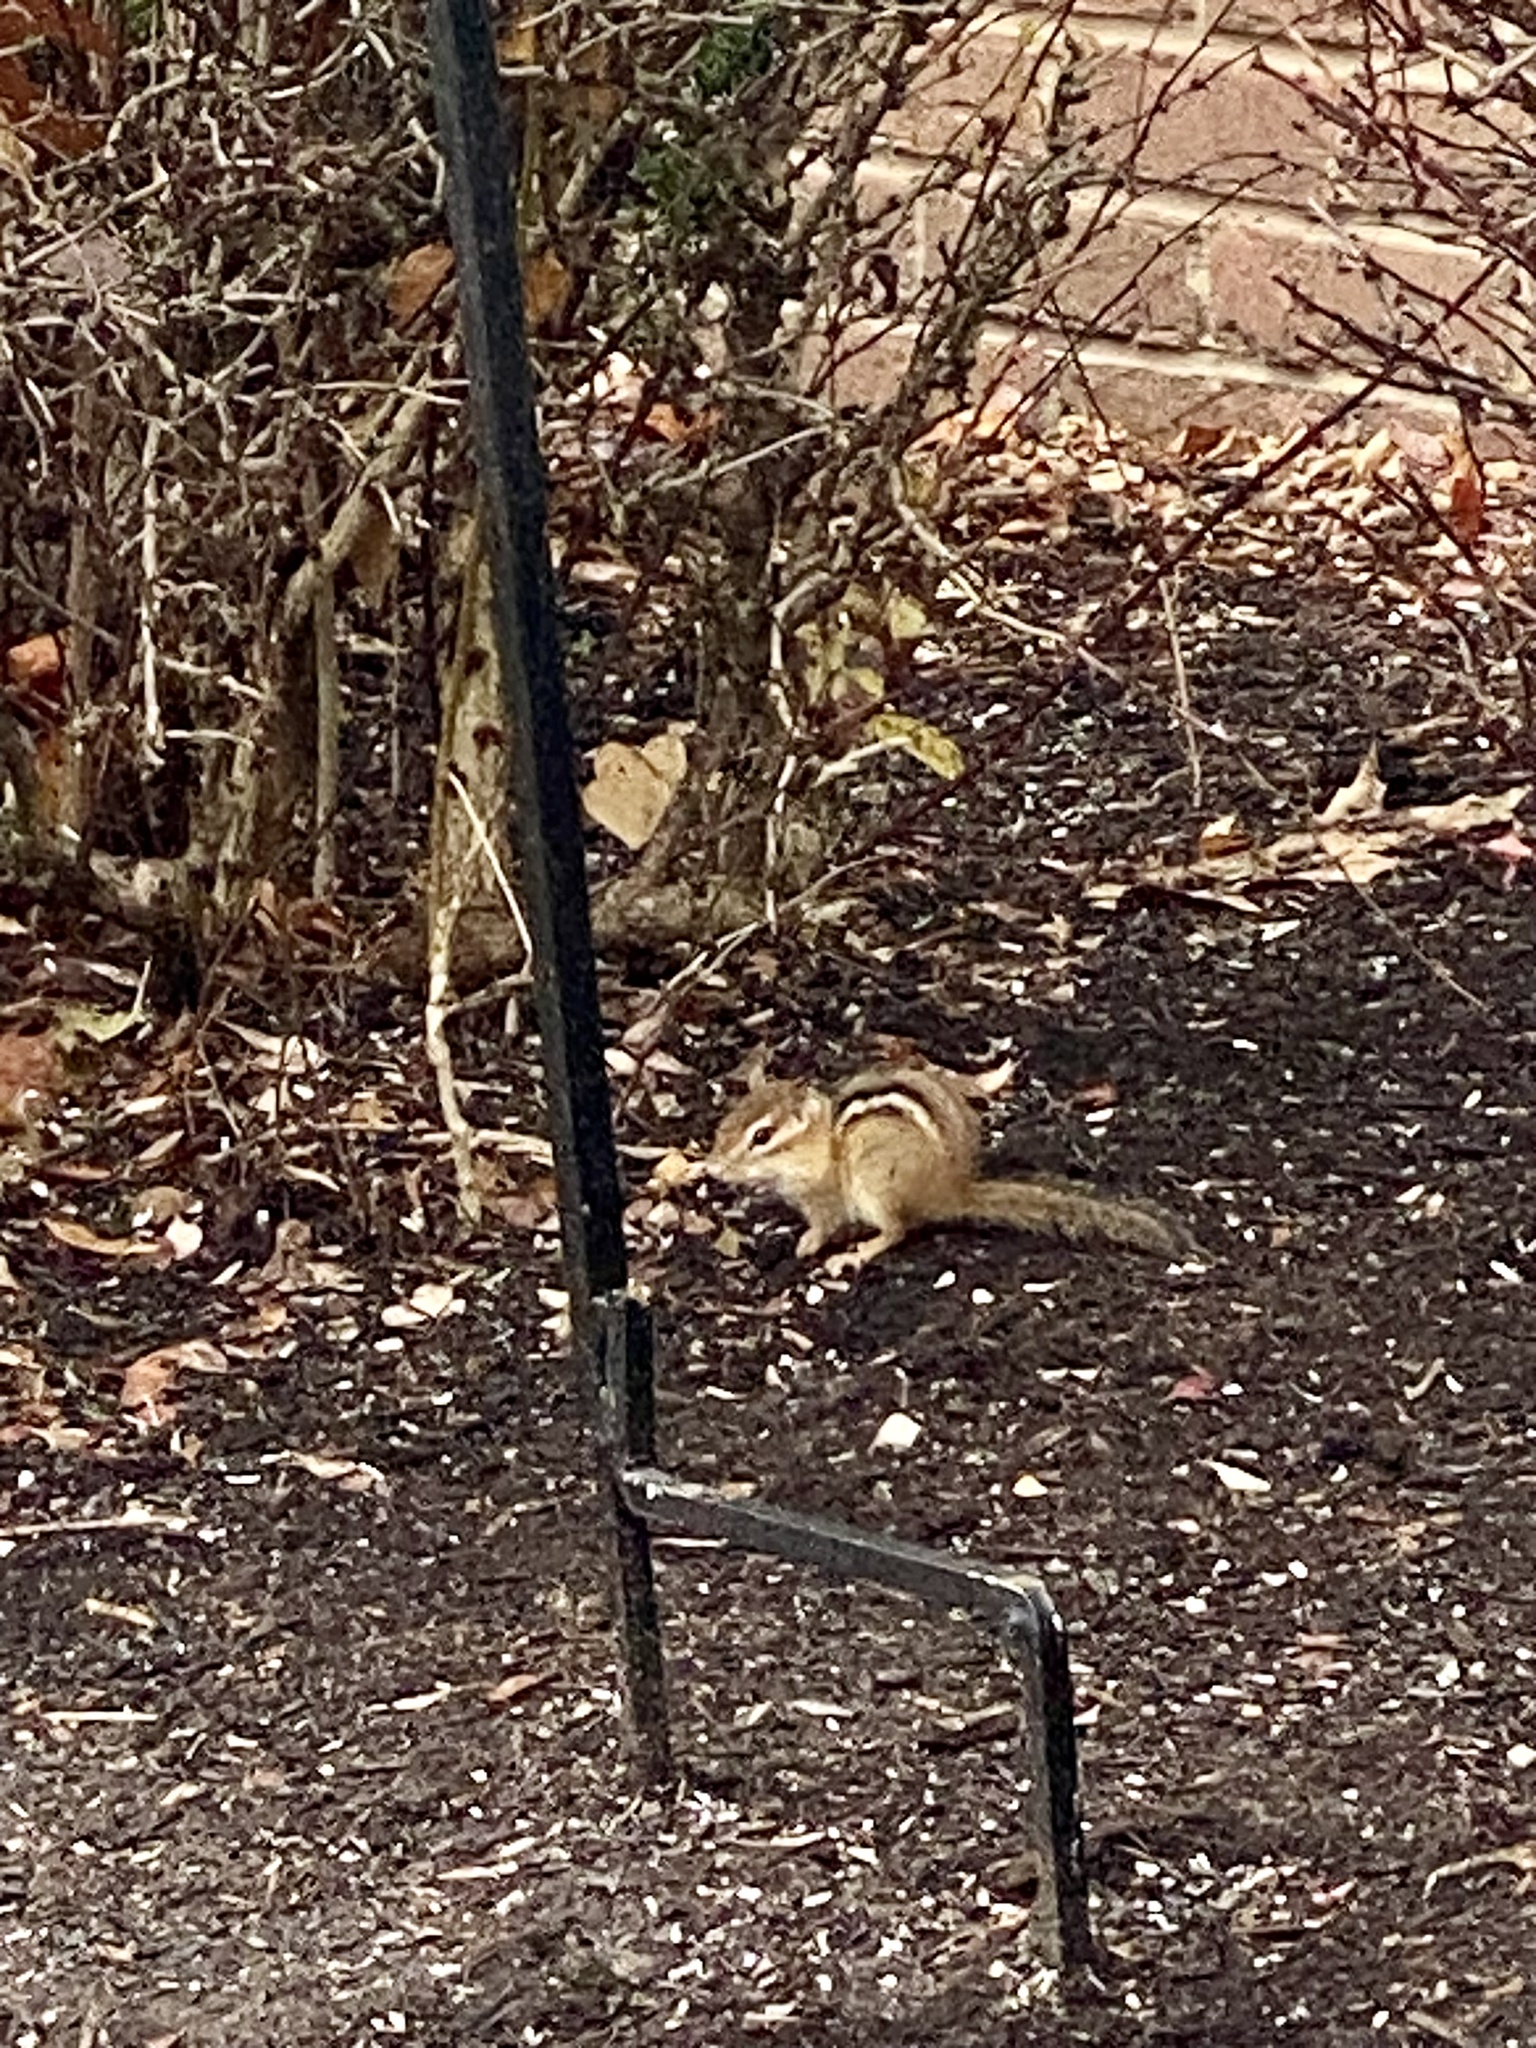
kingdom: Animalia
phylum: Chordata
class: Mammalia
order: Rodentia
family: Sciuridae
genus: Tamias
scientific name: Tamias striatus
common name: Eastern chipmunk
